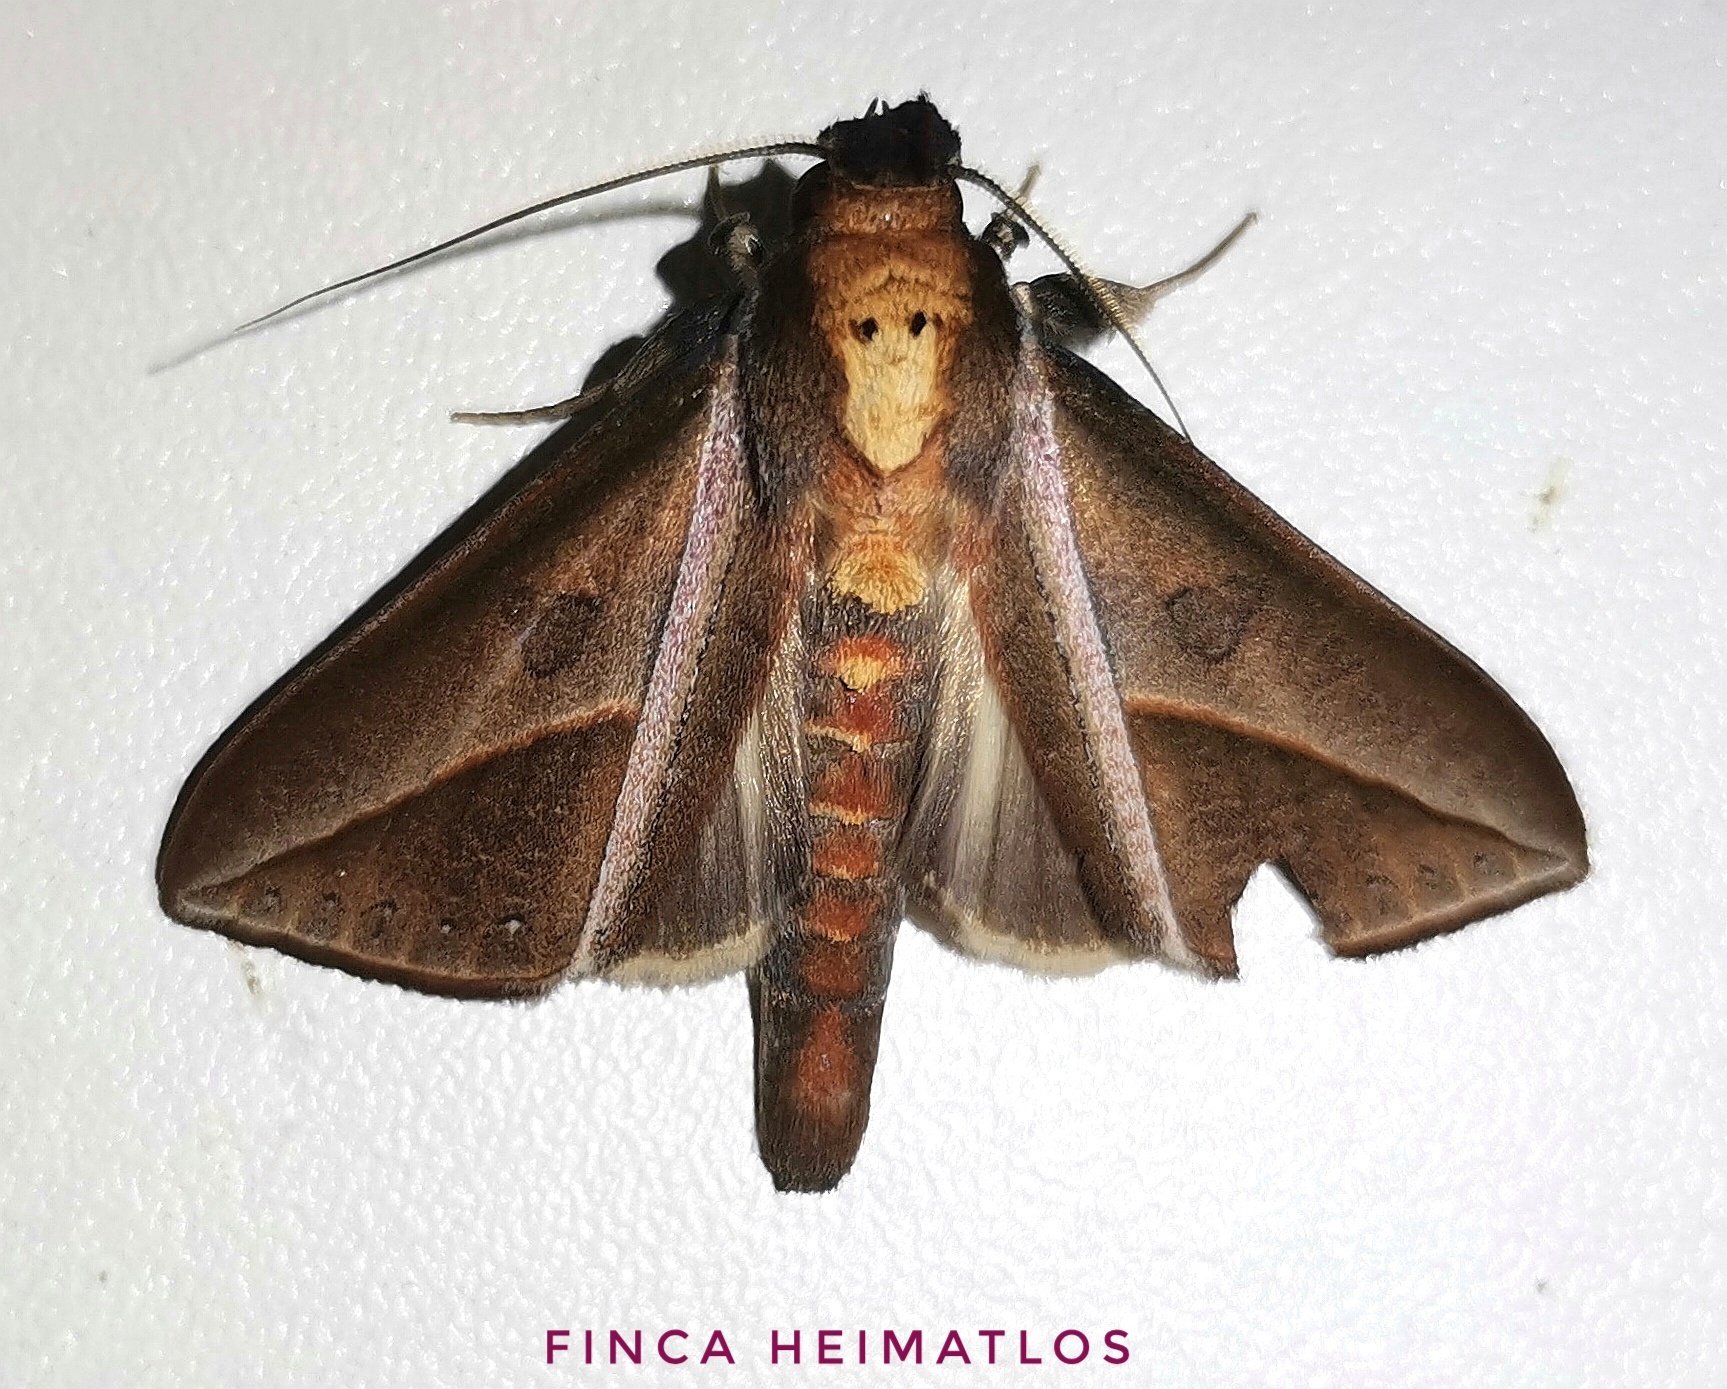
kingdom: Animalia
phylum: Arthropoda
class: Insecta
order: Lepidoptera
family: Notodontidae
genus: Strophocerus
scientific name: Strophocerus sericea
